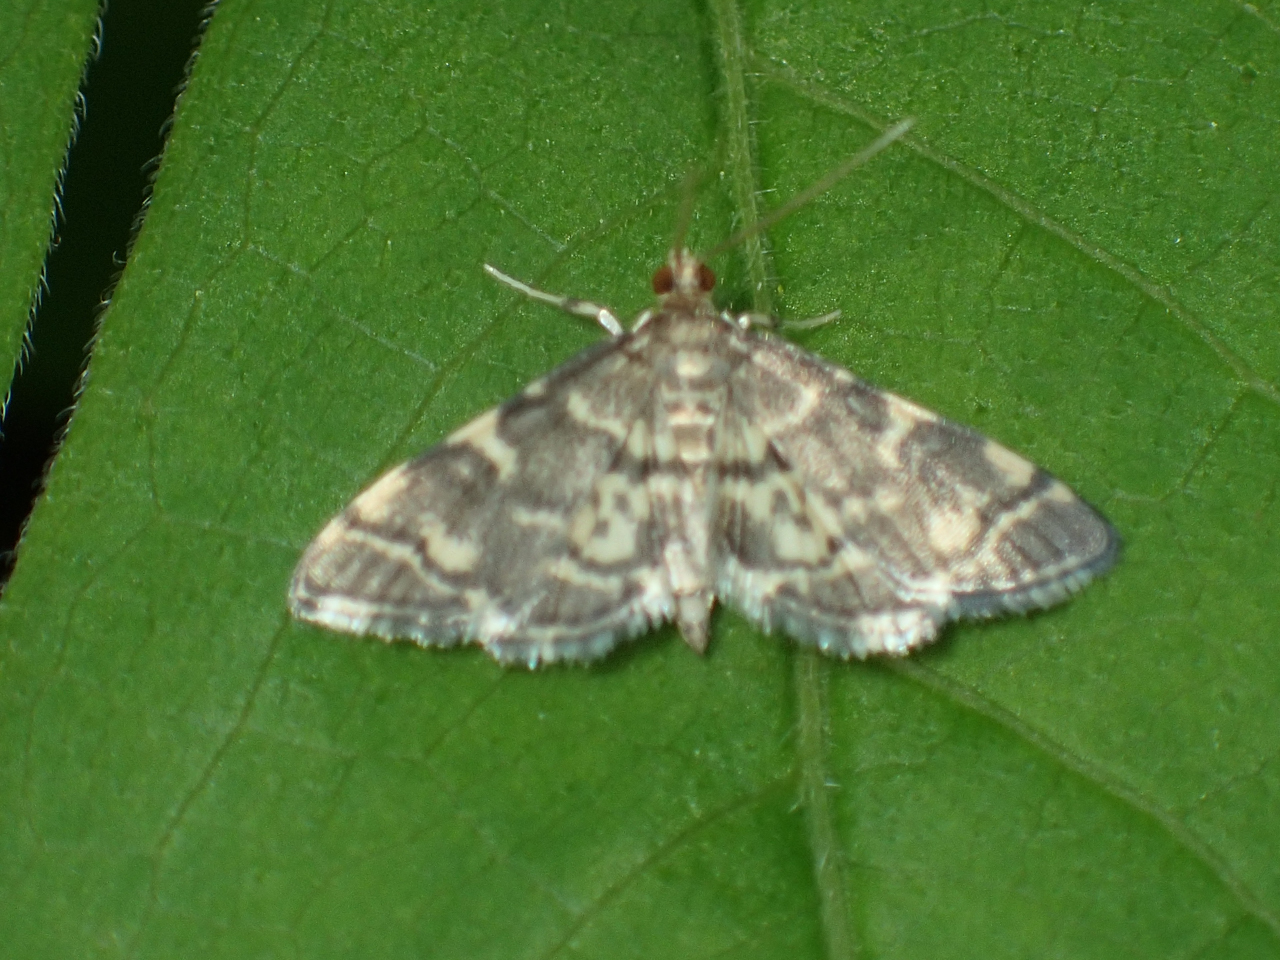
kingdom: Animalia
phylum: Arthropoda
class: Insecta
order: Lepidoptera
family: Crambidae
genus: Anageshna
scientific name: Anageshna primordialis
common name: Yellow-spotted webworm moth
